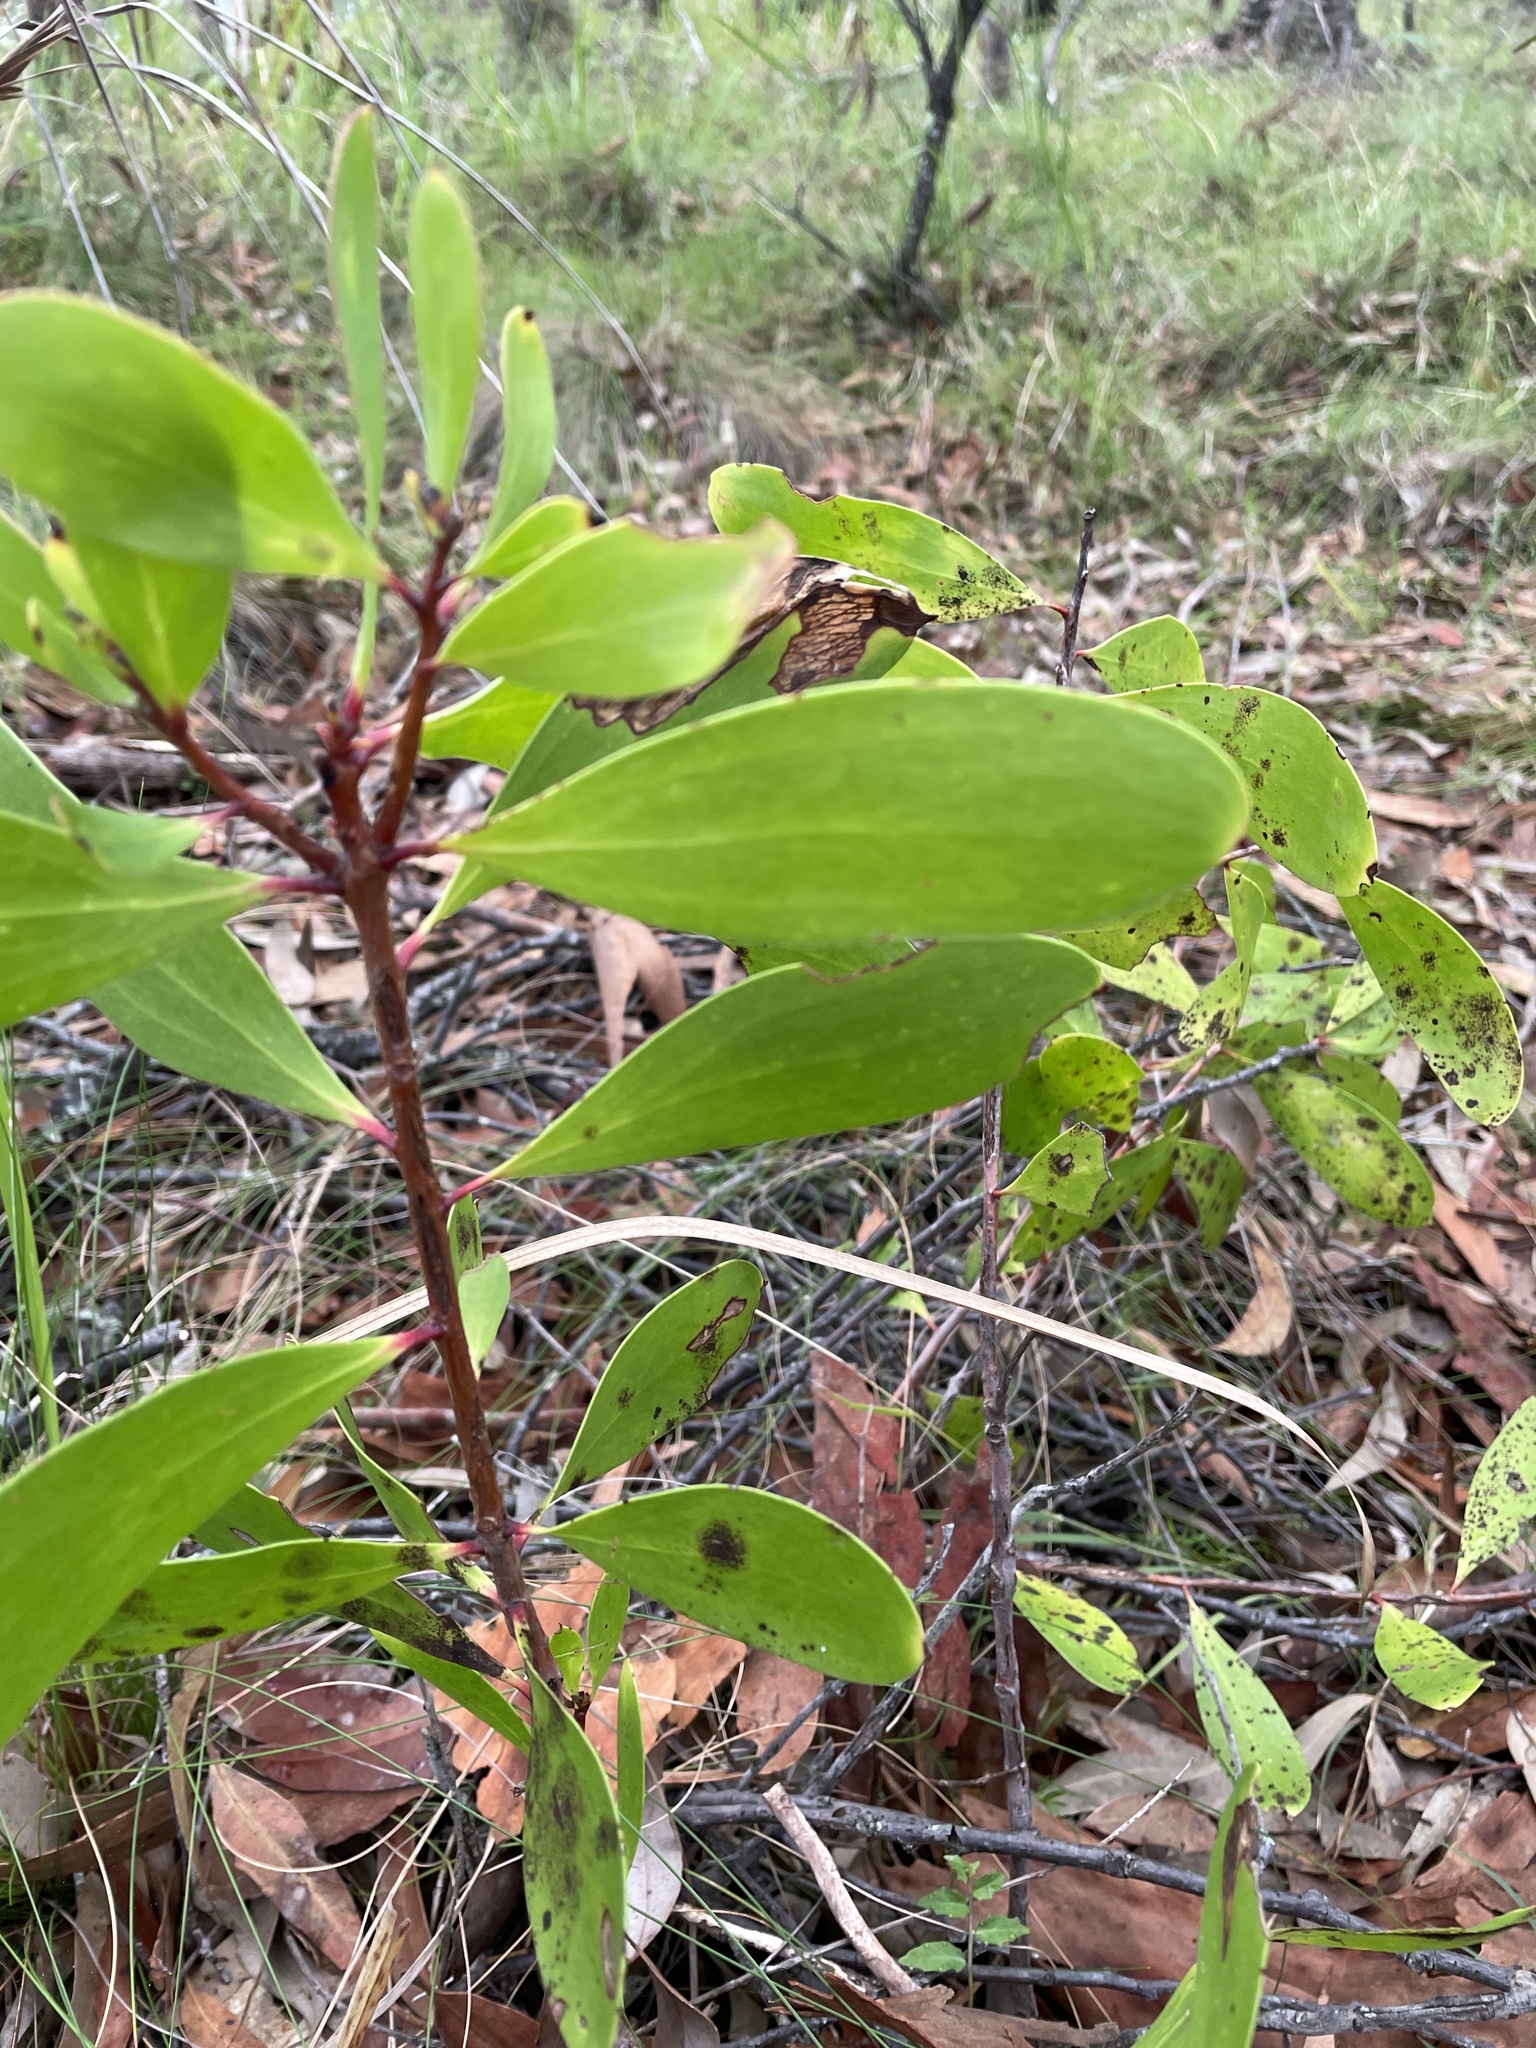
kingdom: Plantae
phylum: Tracheophyta
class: Magnoliopsida
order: Proteales
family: Proteaceae
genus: Persoonia
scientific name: Persoonia levis
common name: Smooth geebung
